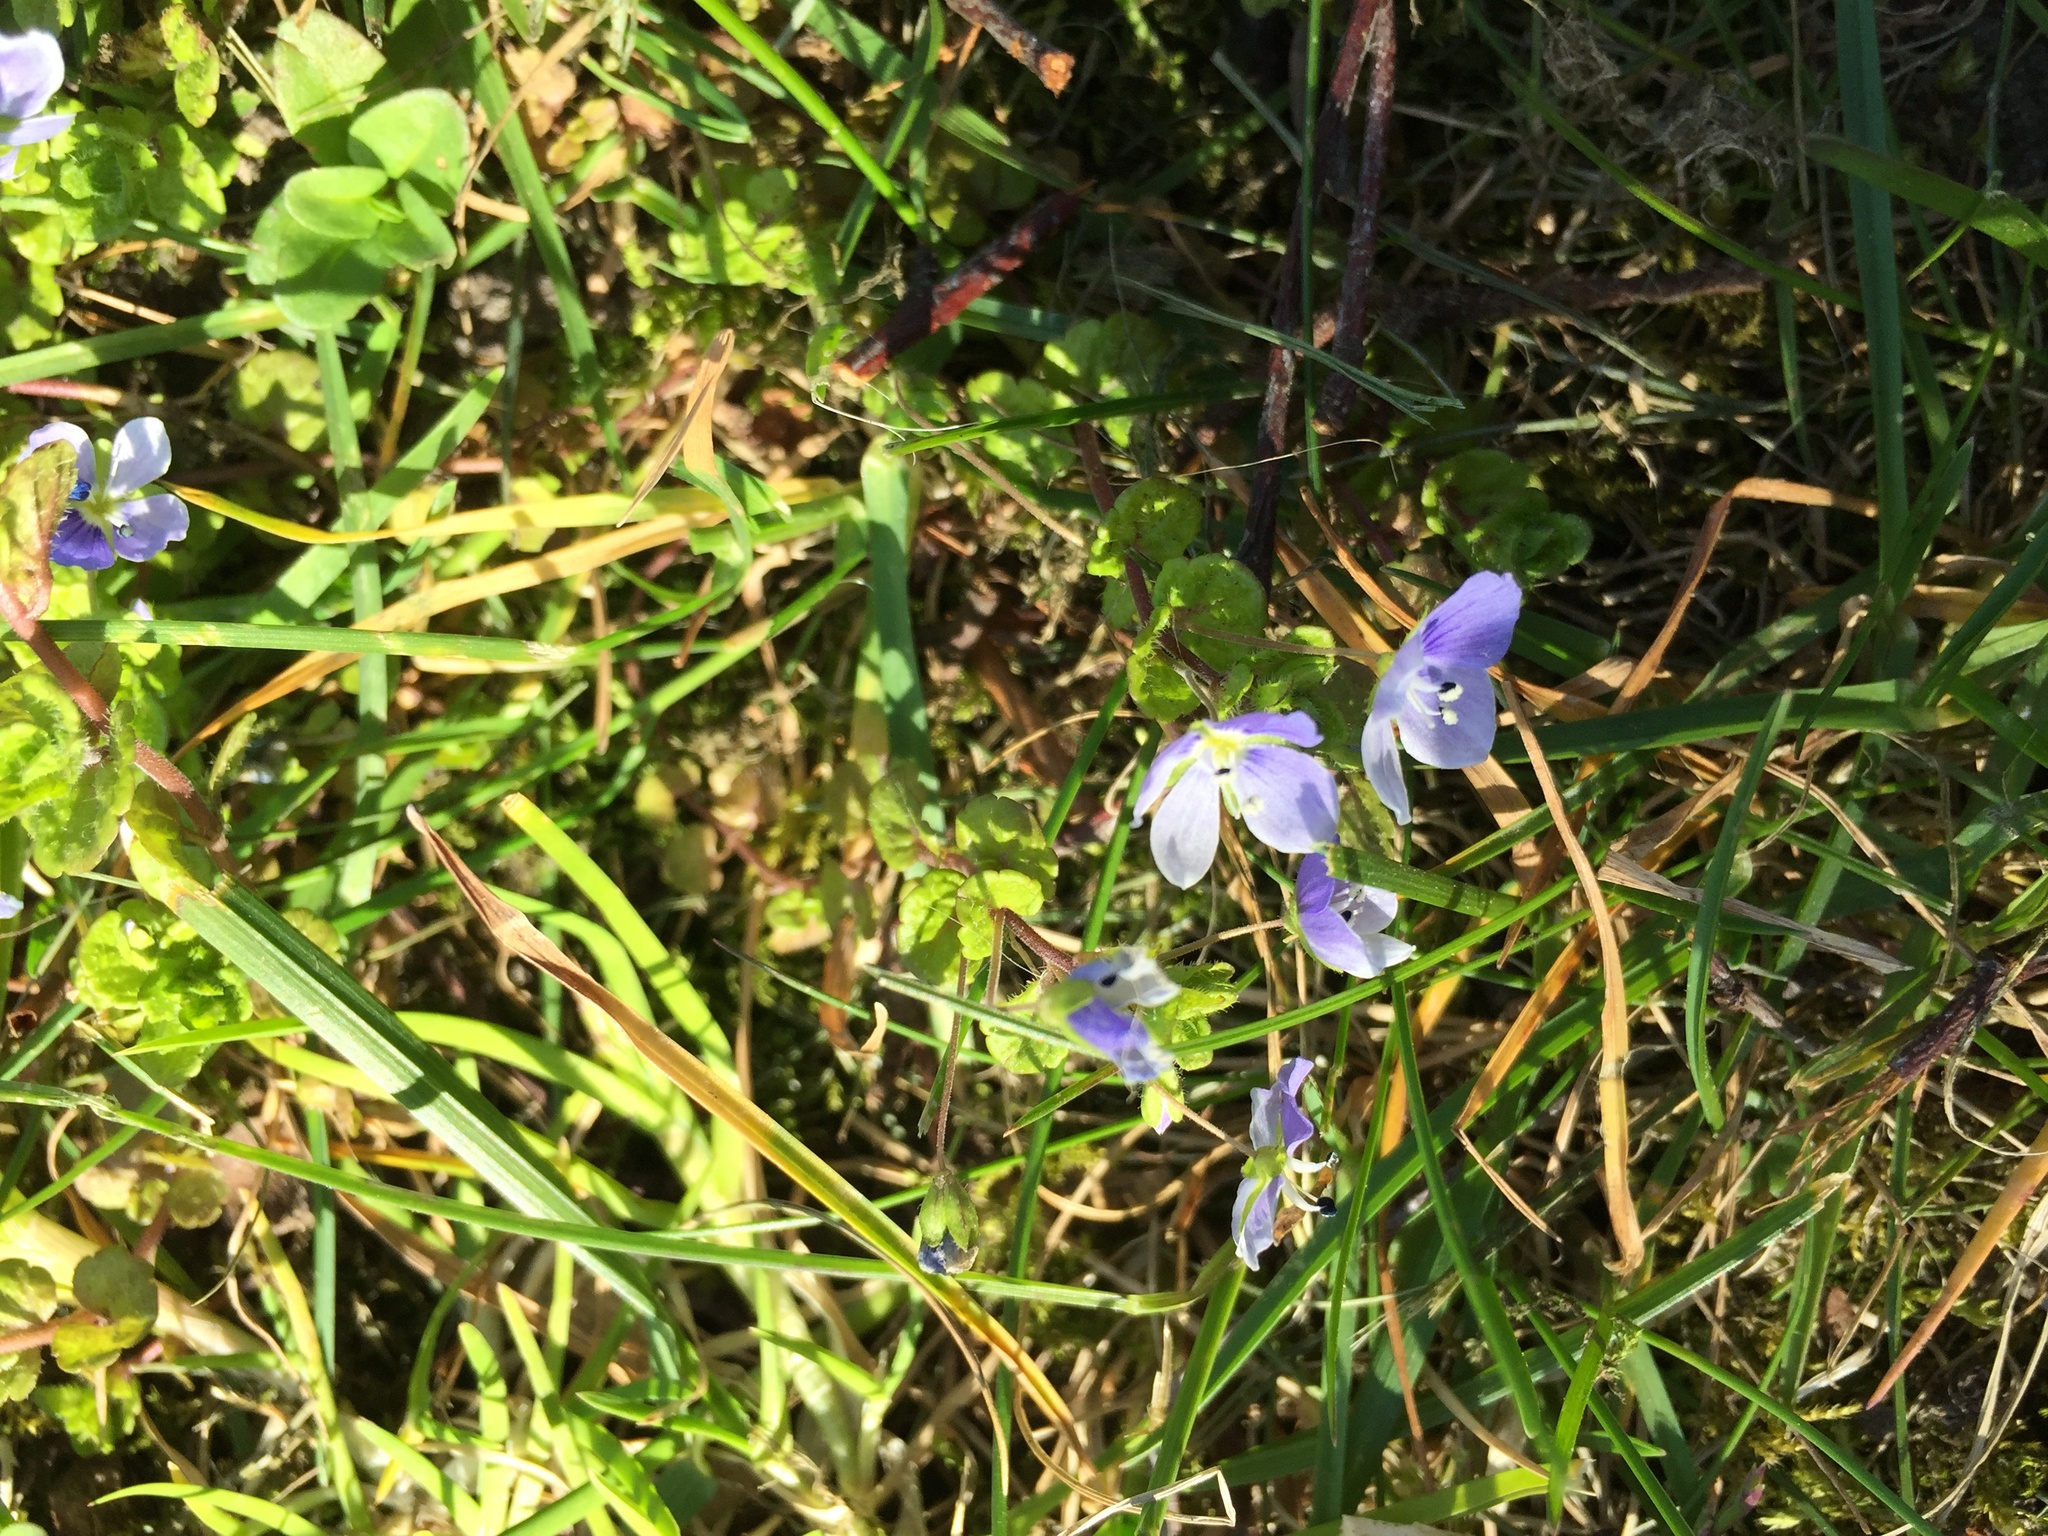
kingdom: Plantae
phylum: Tracheophyta
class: Magnoliopsida
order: Lamiales
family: Plantaginaceae
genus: Veronica
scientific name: Veronica filiformis
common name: Slender speedwell
